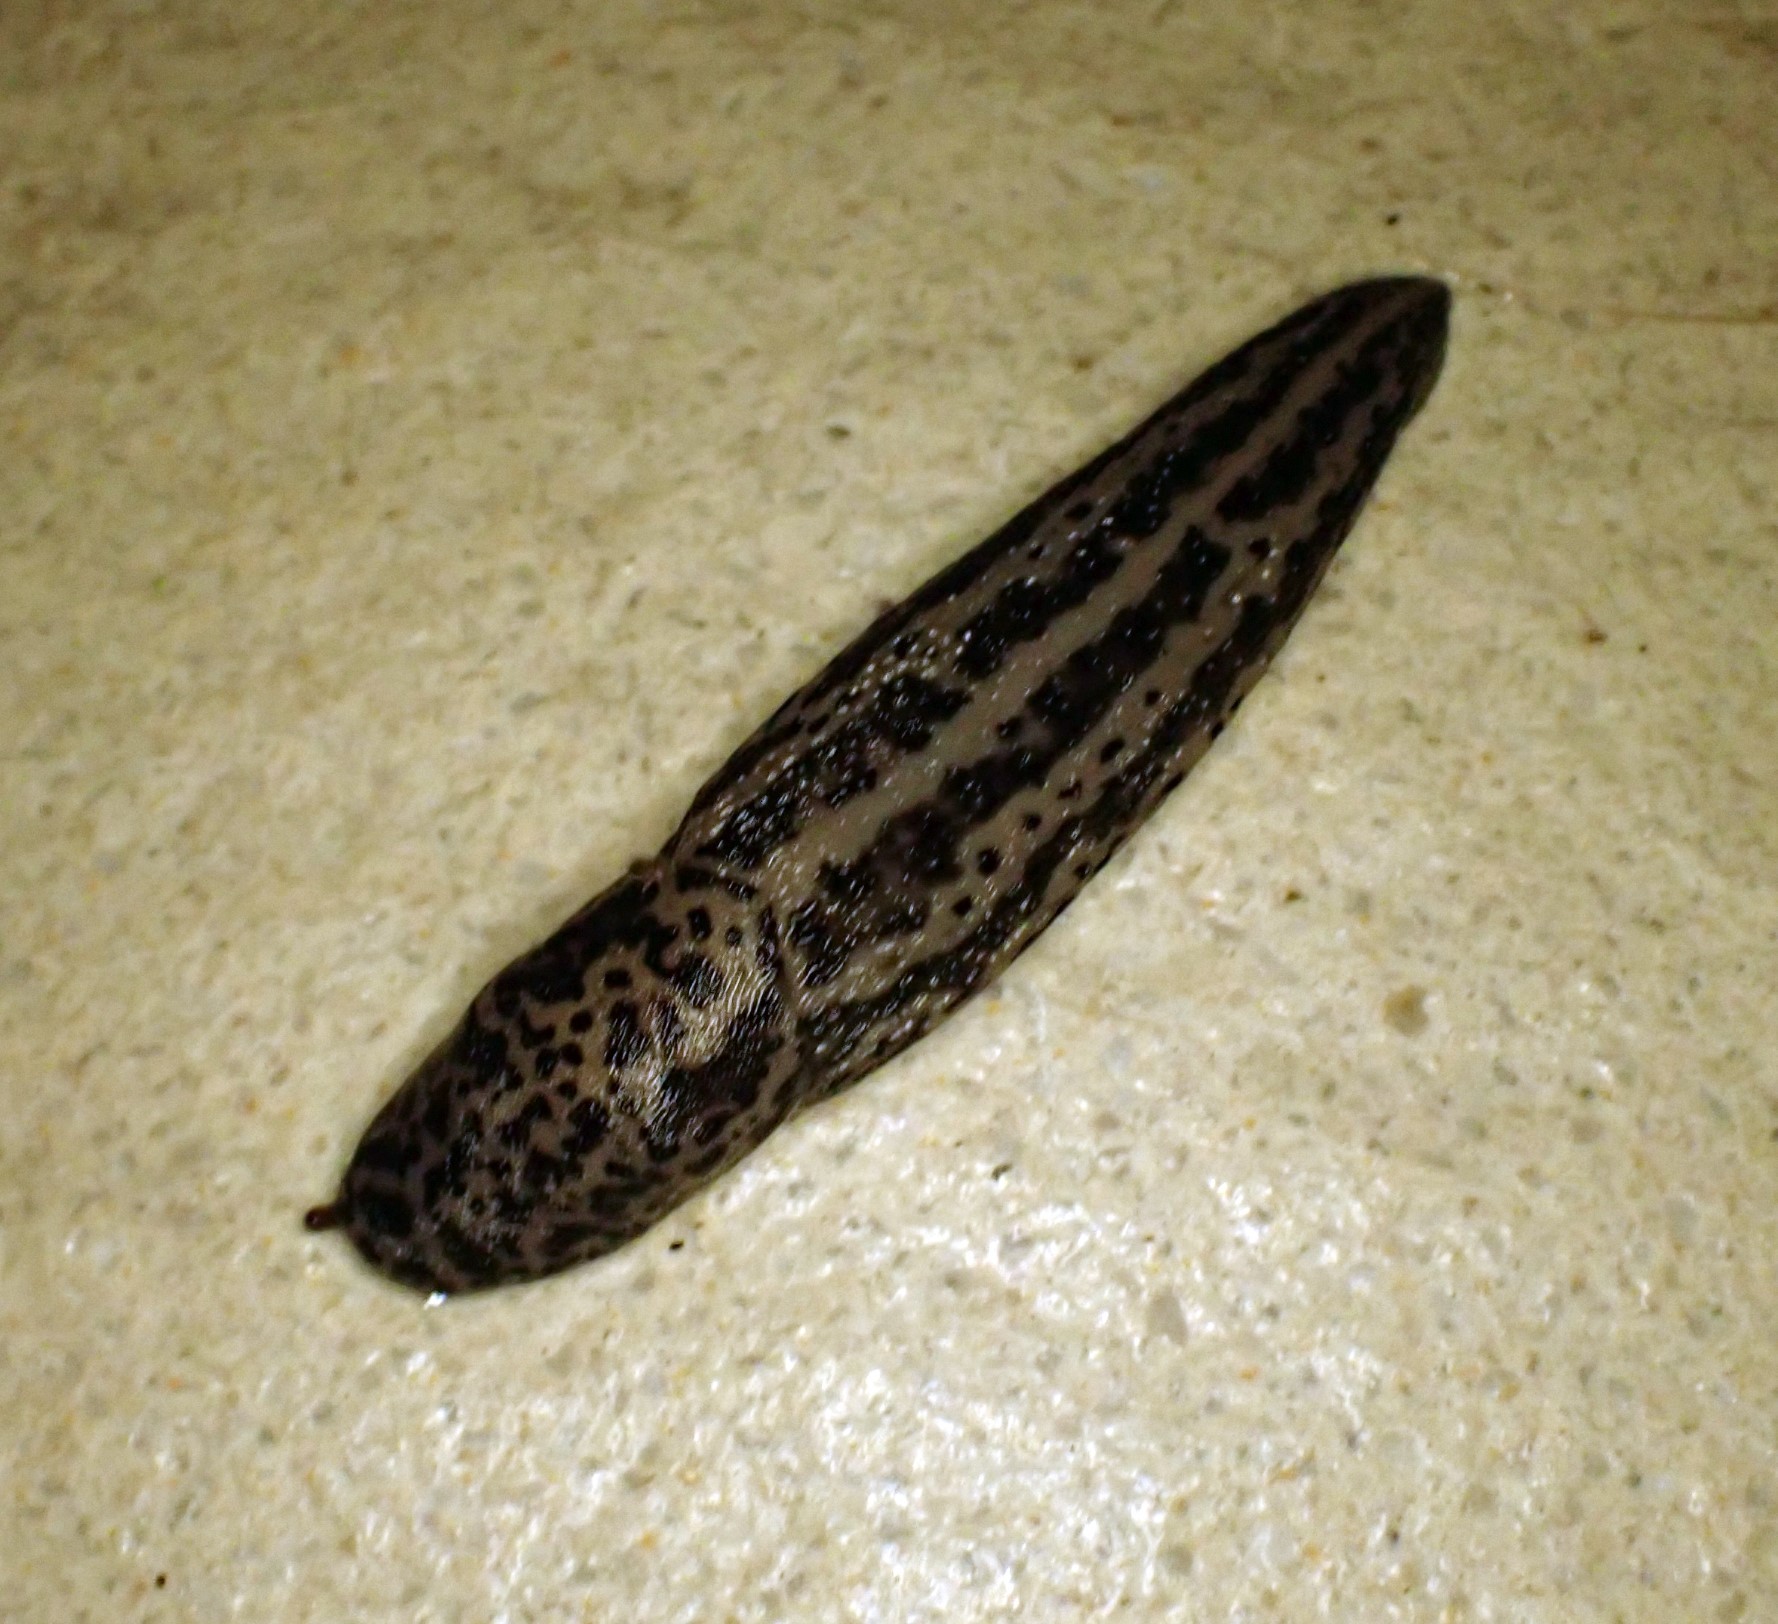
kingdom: Animalia
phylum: Mollusca
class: Gastropoda
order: Stylommatophora
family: Limacidae
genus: Limax
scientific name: Limax maximus
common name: Great grey slug
